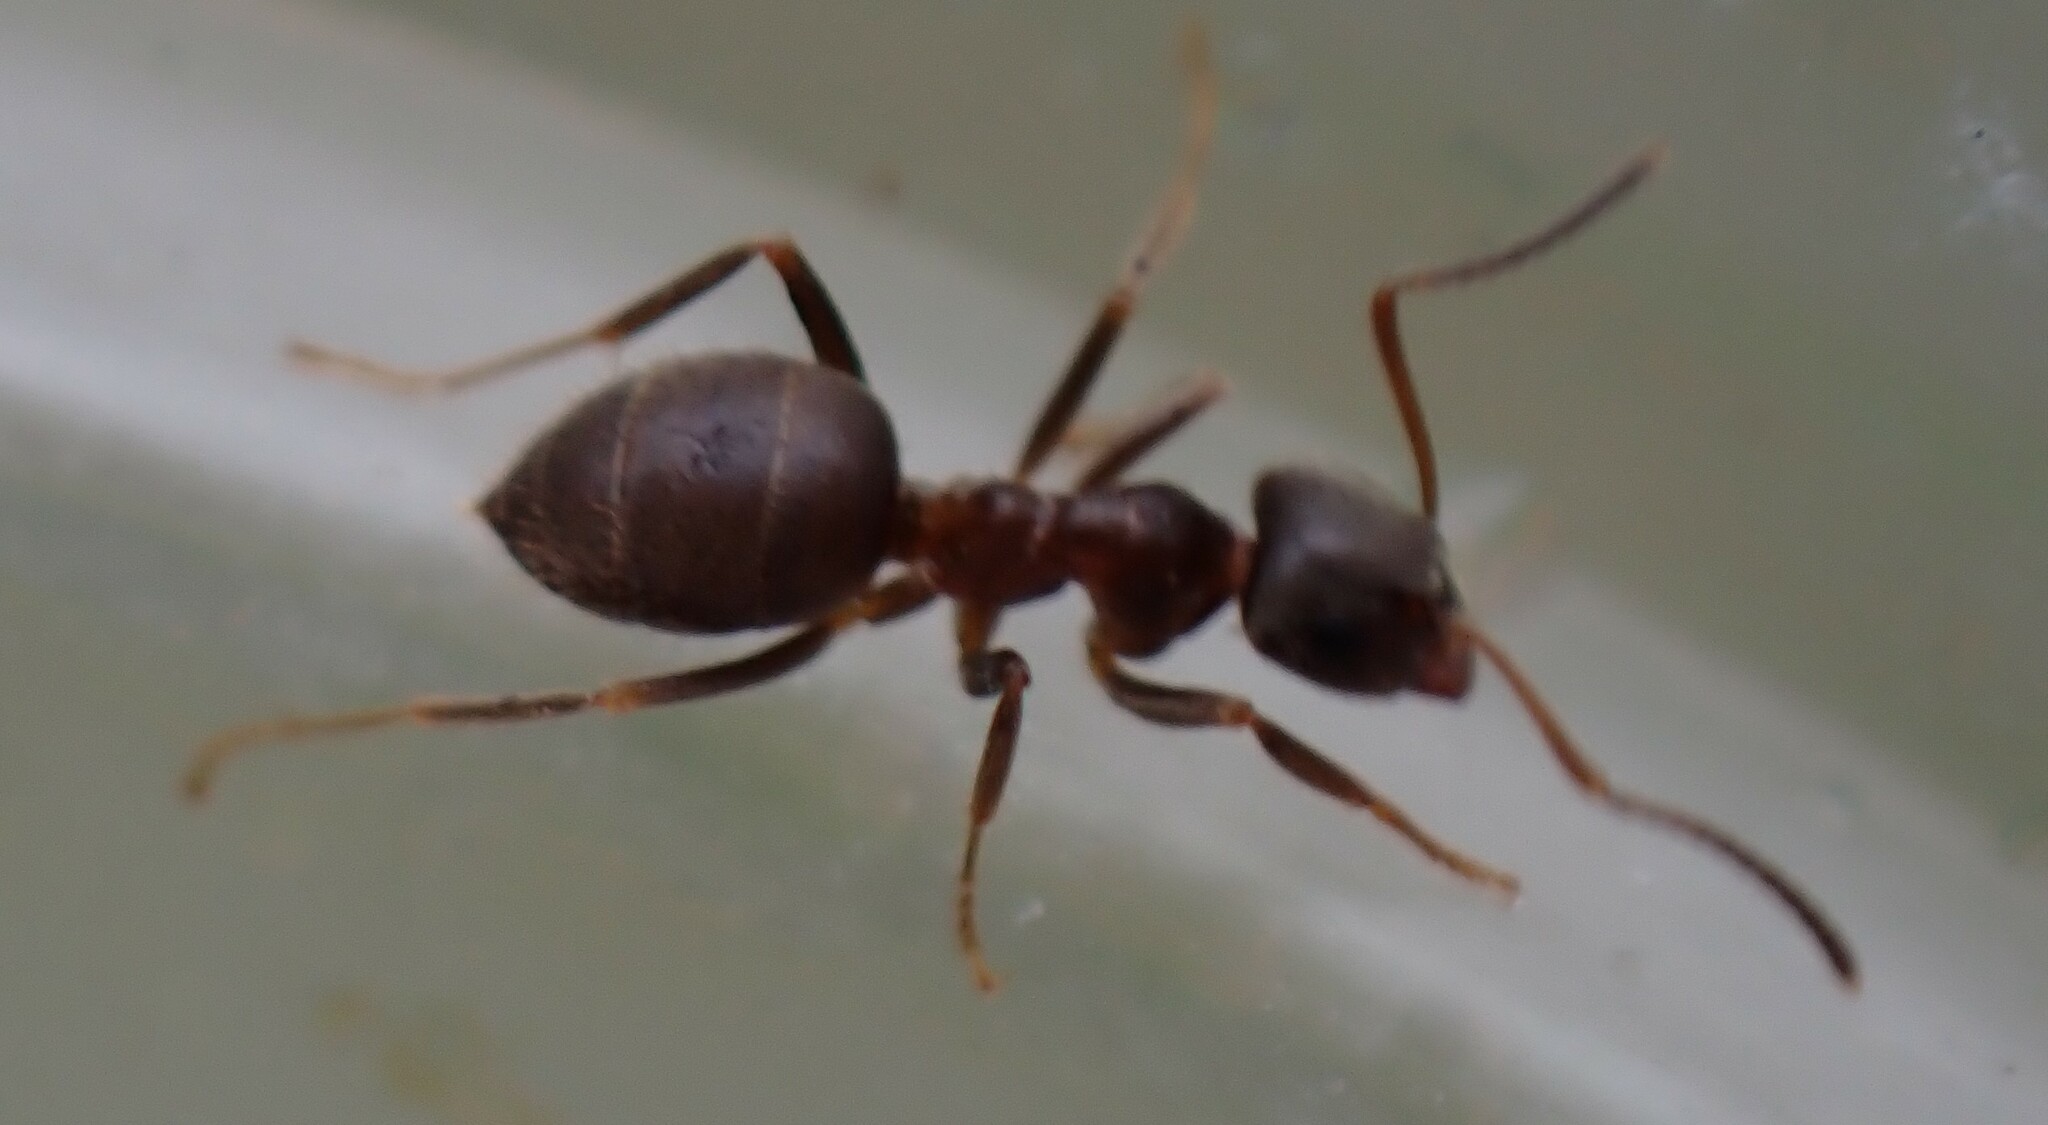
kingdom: Animalia
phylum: Arthropoda
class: Insecta
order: Hymenoptera
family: Formicidae
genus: Lasius
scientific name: Lasius
